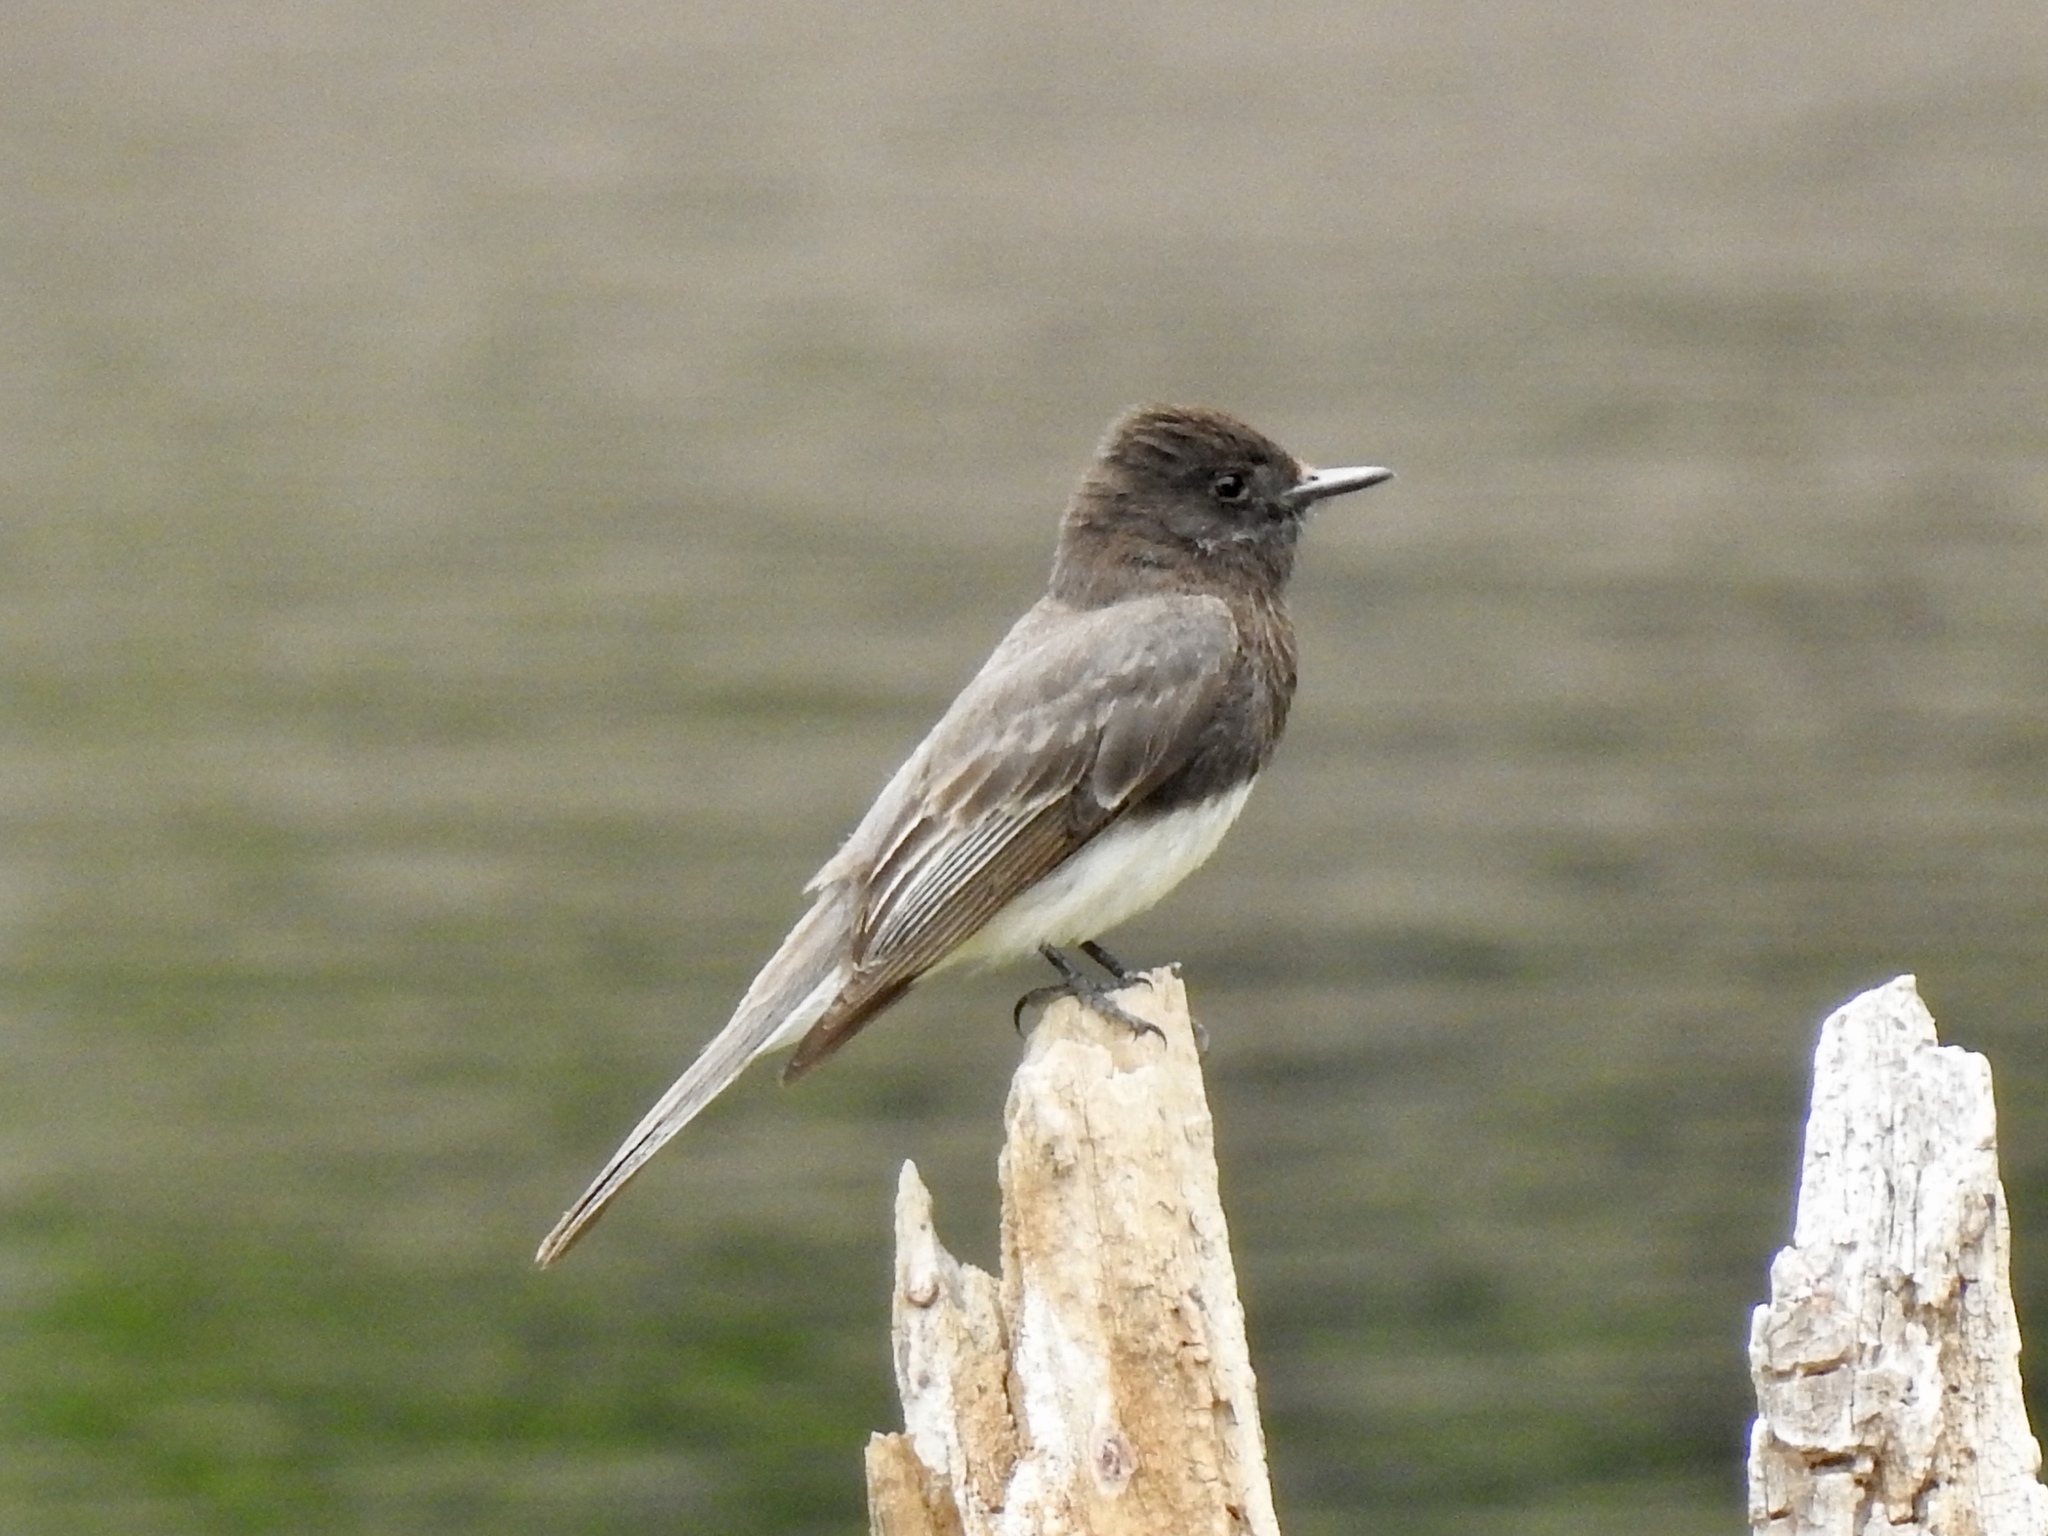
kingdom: Animalia
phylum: Chordata
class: Aves
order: Passeriformes
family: Tyrannidae
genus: Sayornis
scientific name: Sayornis nigricans
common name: Black phoebe
